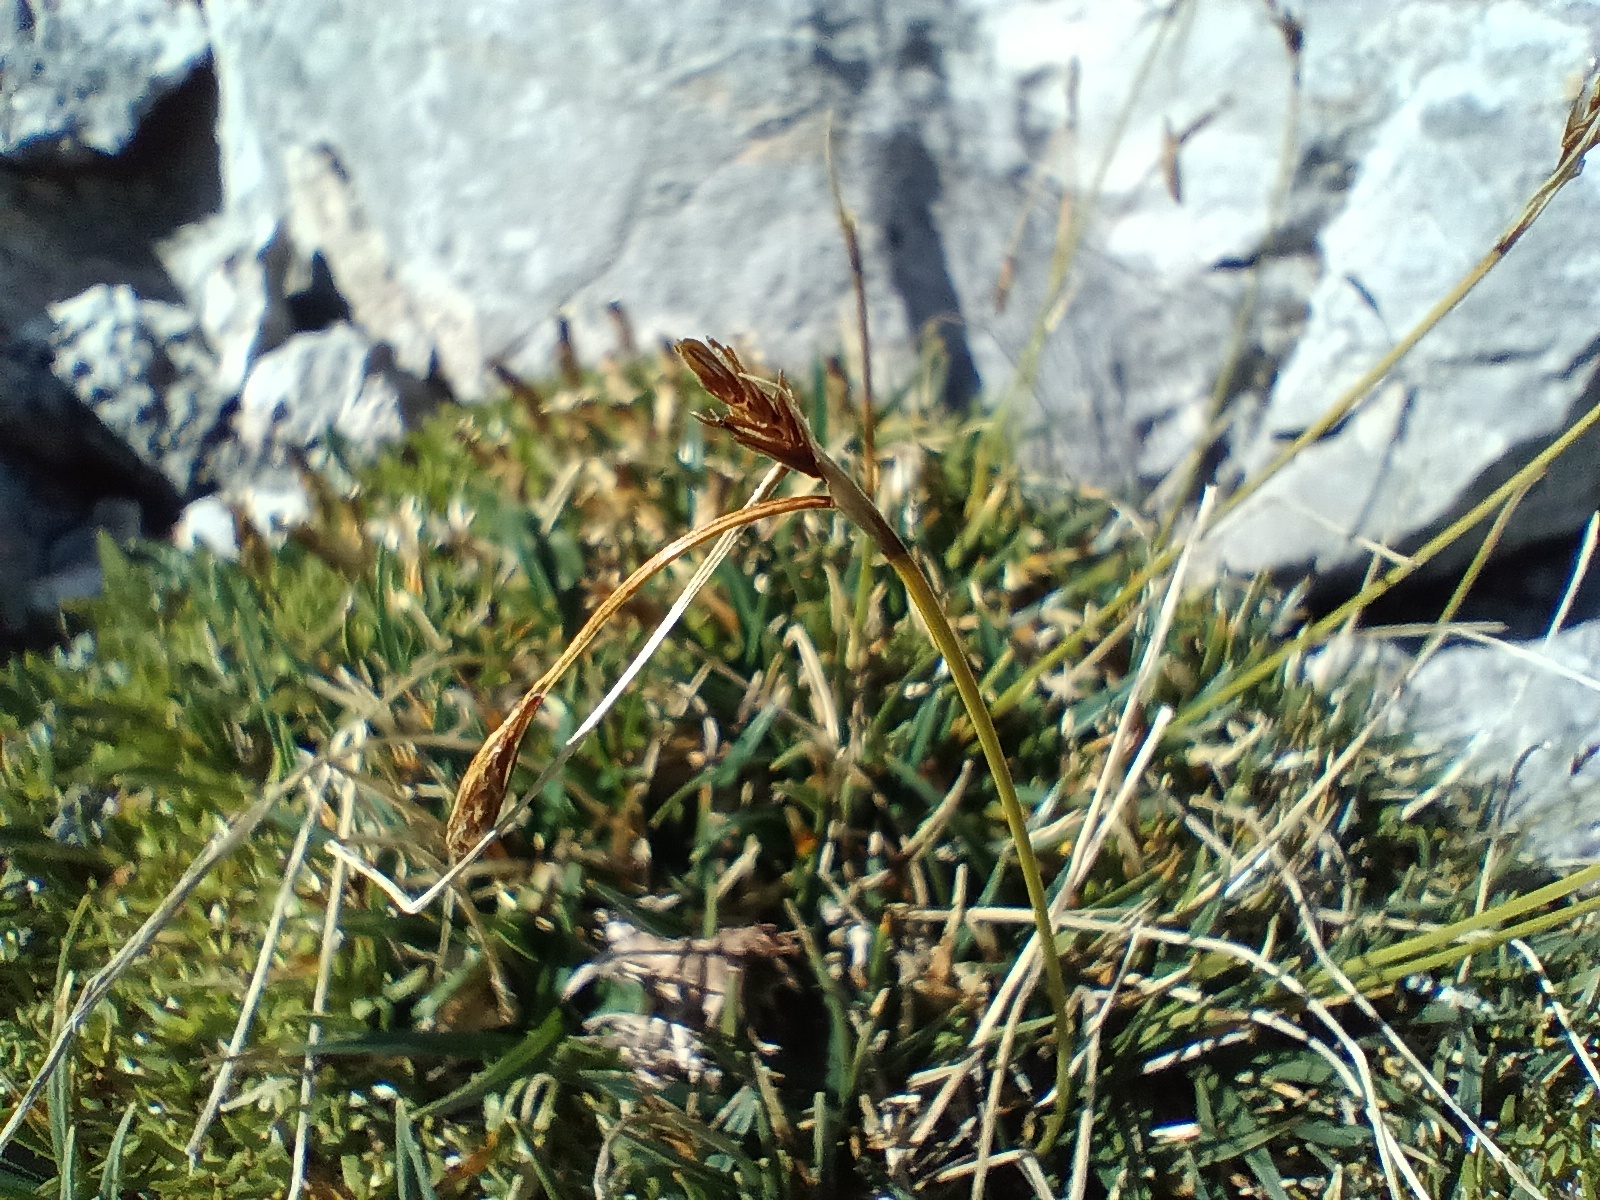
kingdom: Plantae
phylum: Tracheophyta
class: Liliopsida
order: Poales
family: Cyperaceae
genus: Carex
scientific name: Carex firma
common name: Dwarf pillow sedge
